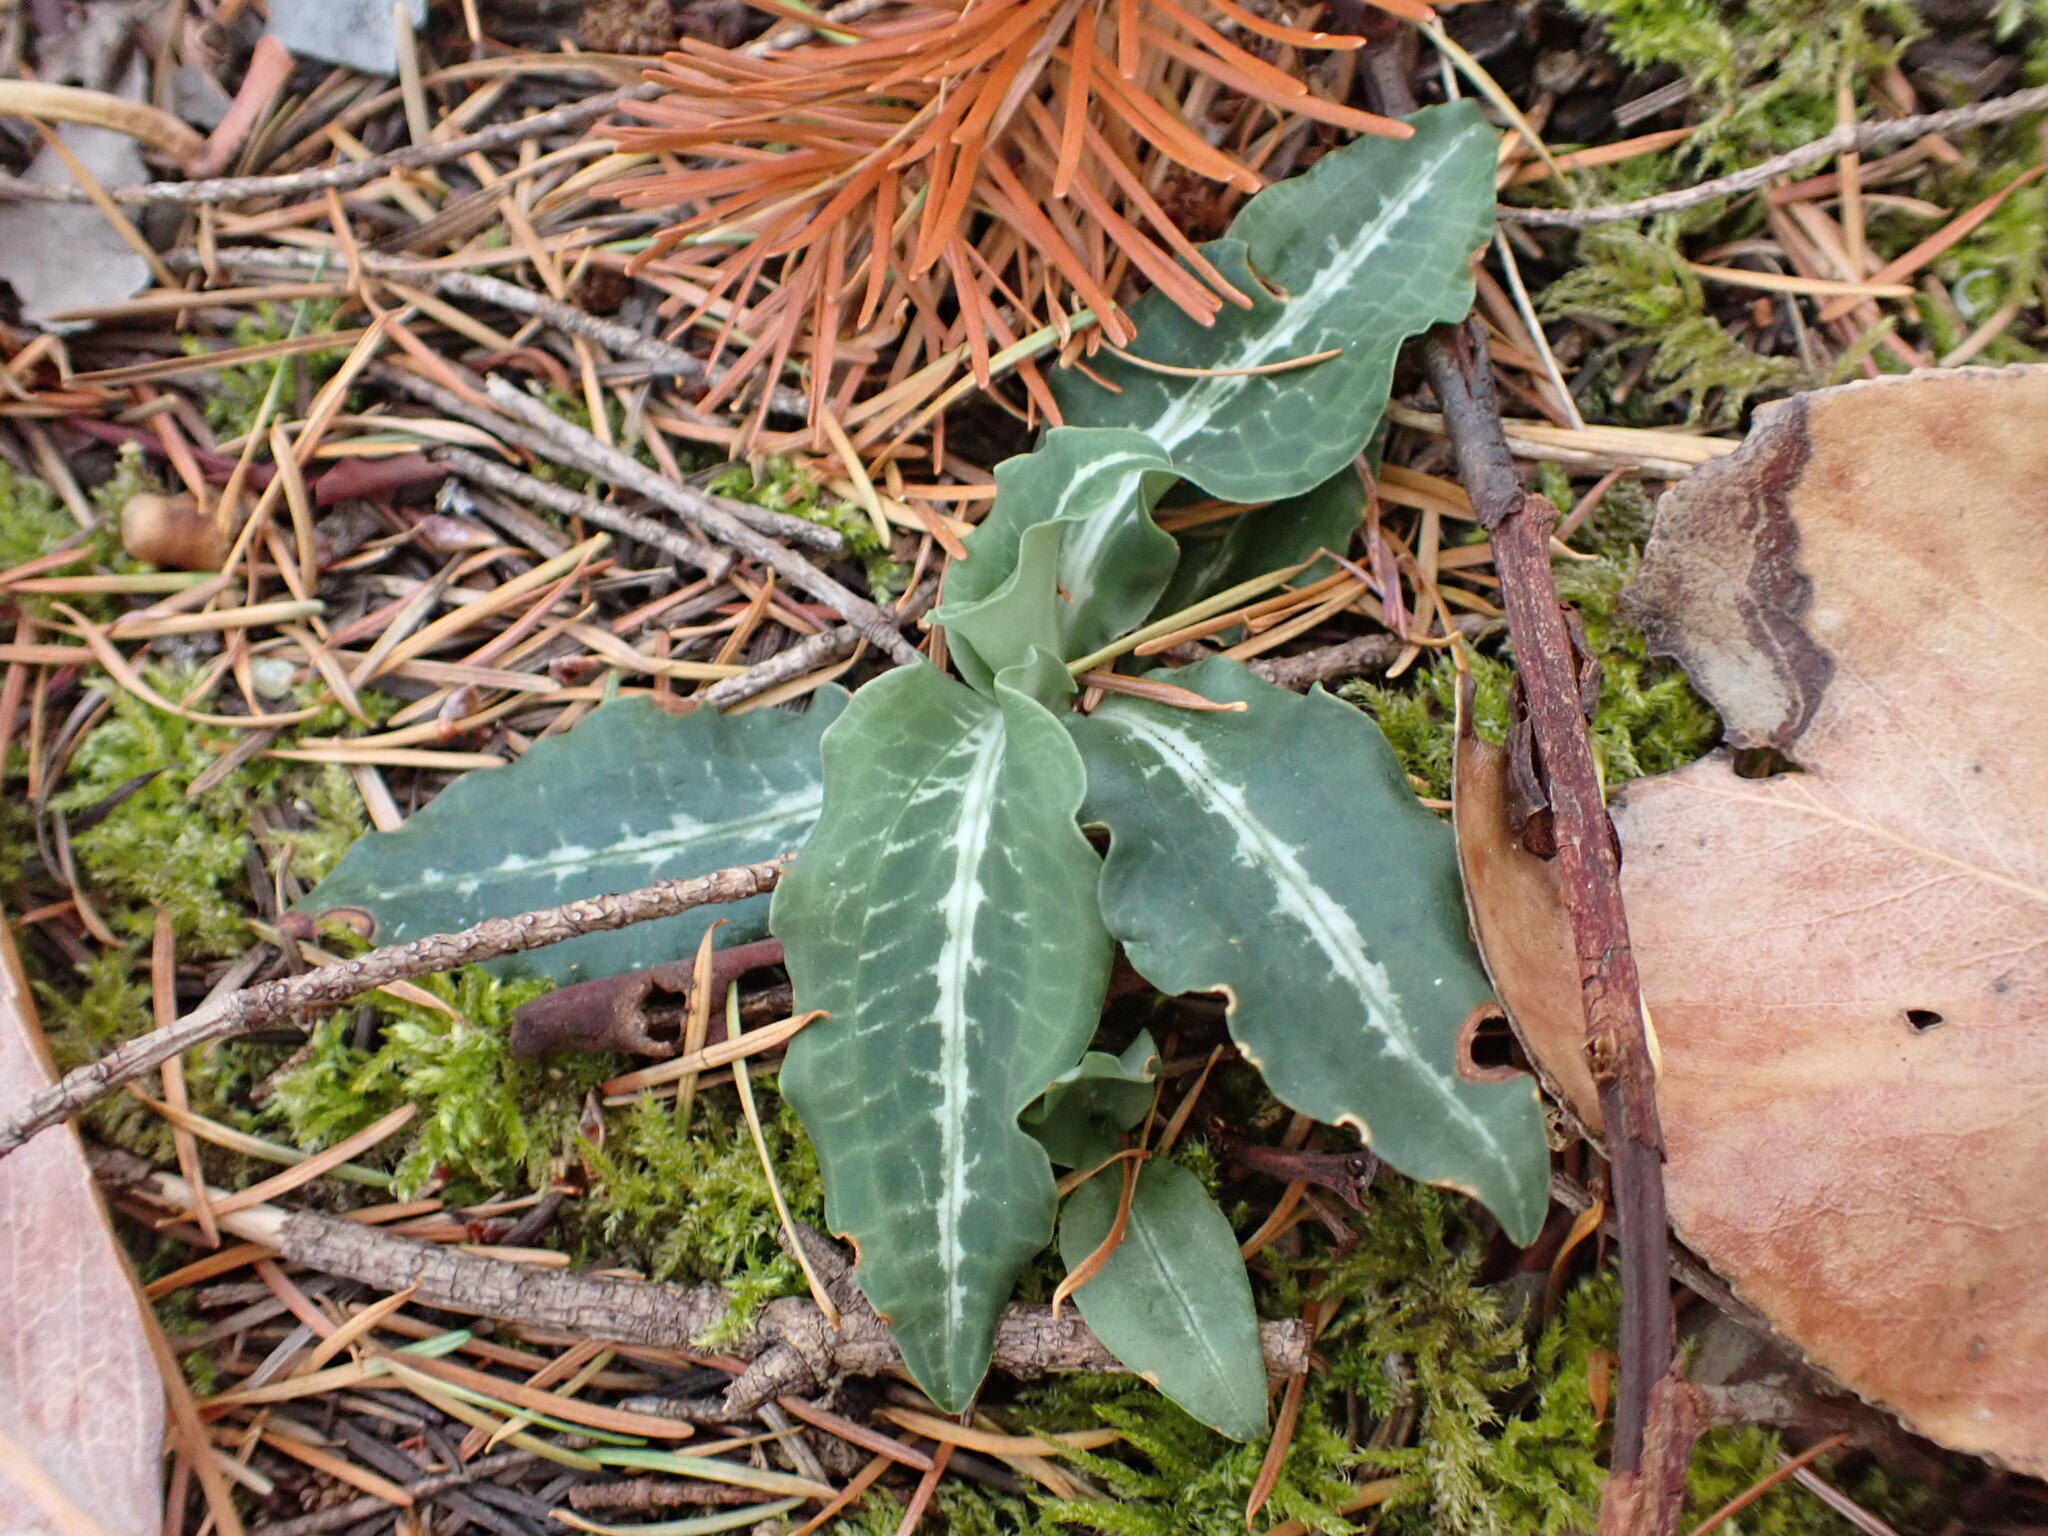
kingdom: Plantae
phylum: Tracheophyta
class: Liliopsida
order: Asparagales
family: Orchidaceae
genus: Goodyera
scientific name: Goodyera oblongifolia
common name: Giant rattlesnake-plantain
